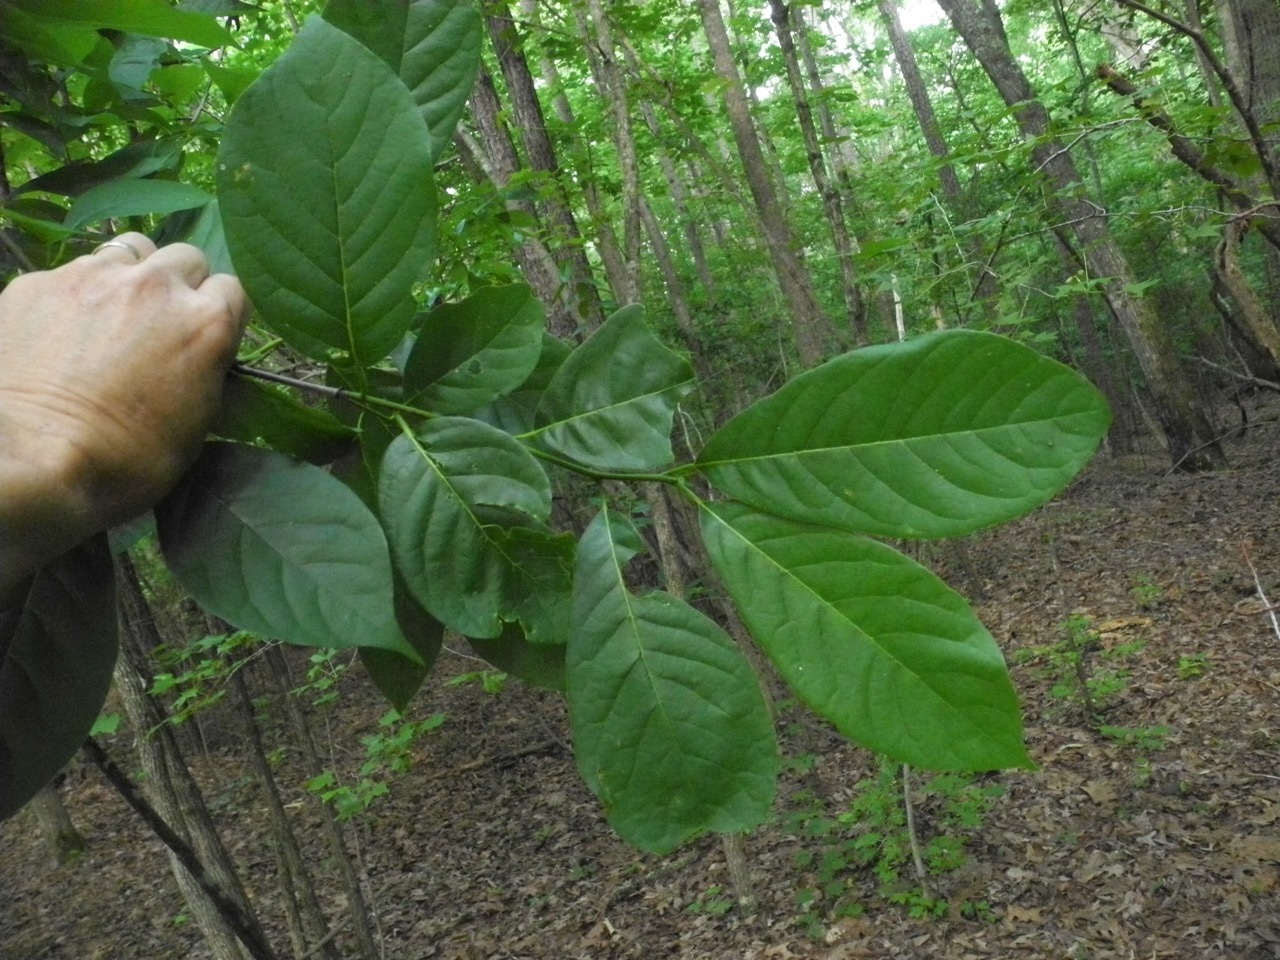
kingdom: Plantae
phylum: Tracheophyta
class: Magnoliopsida
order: Cornales
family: Nyssaceae
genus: Nyssa
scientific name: Nyssa sylvatica
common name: Black tupelo
